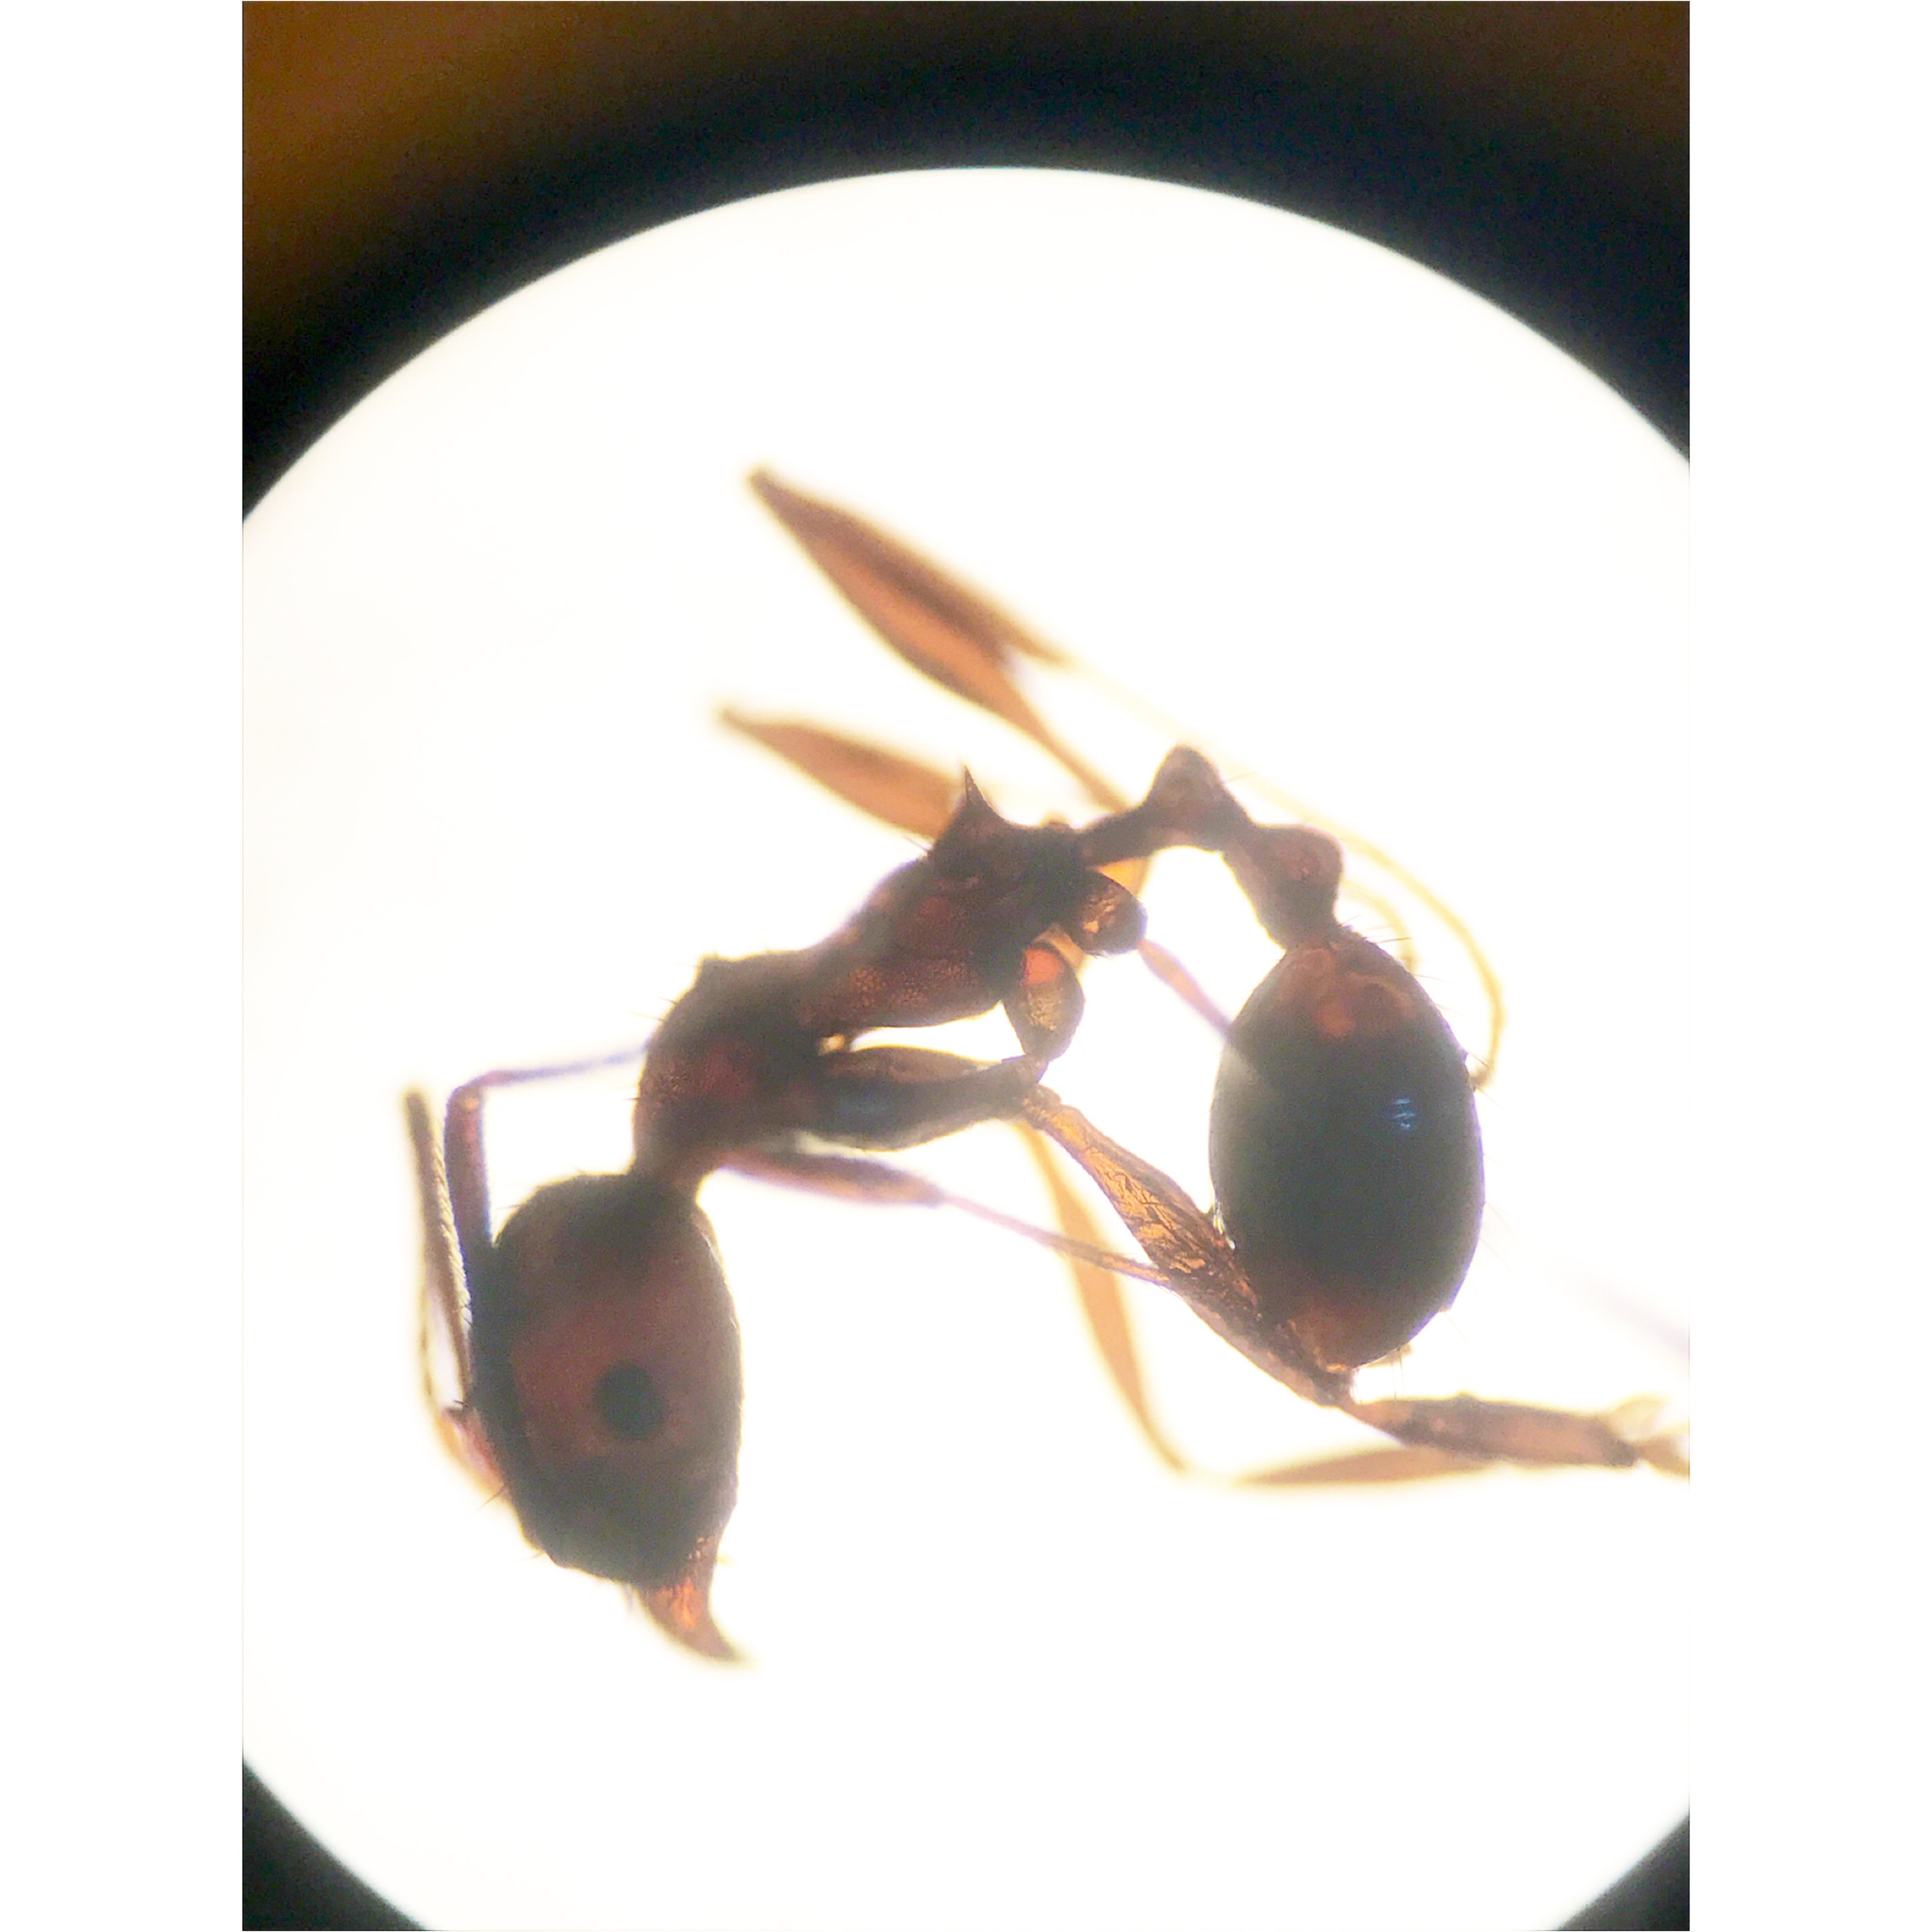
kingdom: Animalia
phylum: Arthropoda
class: Insecta
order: Hymenoptera
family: Formicidae
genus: Aphaenogaster
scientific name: Aphaenogaster fulva
